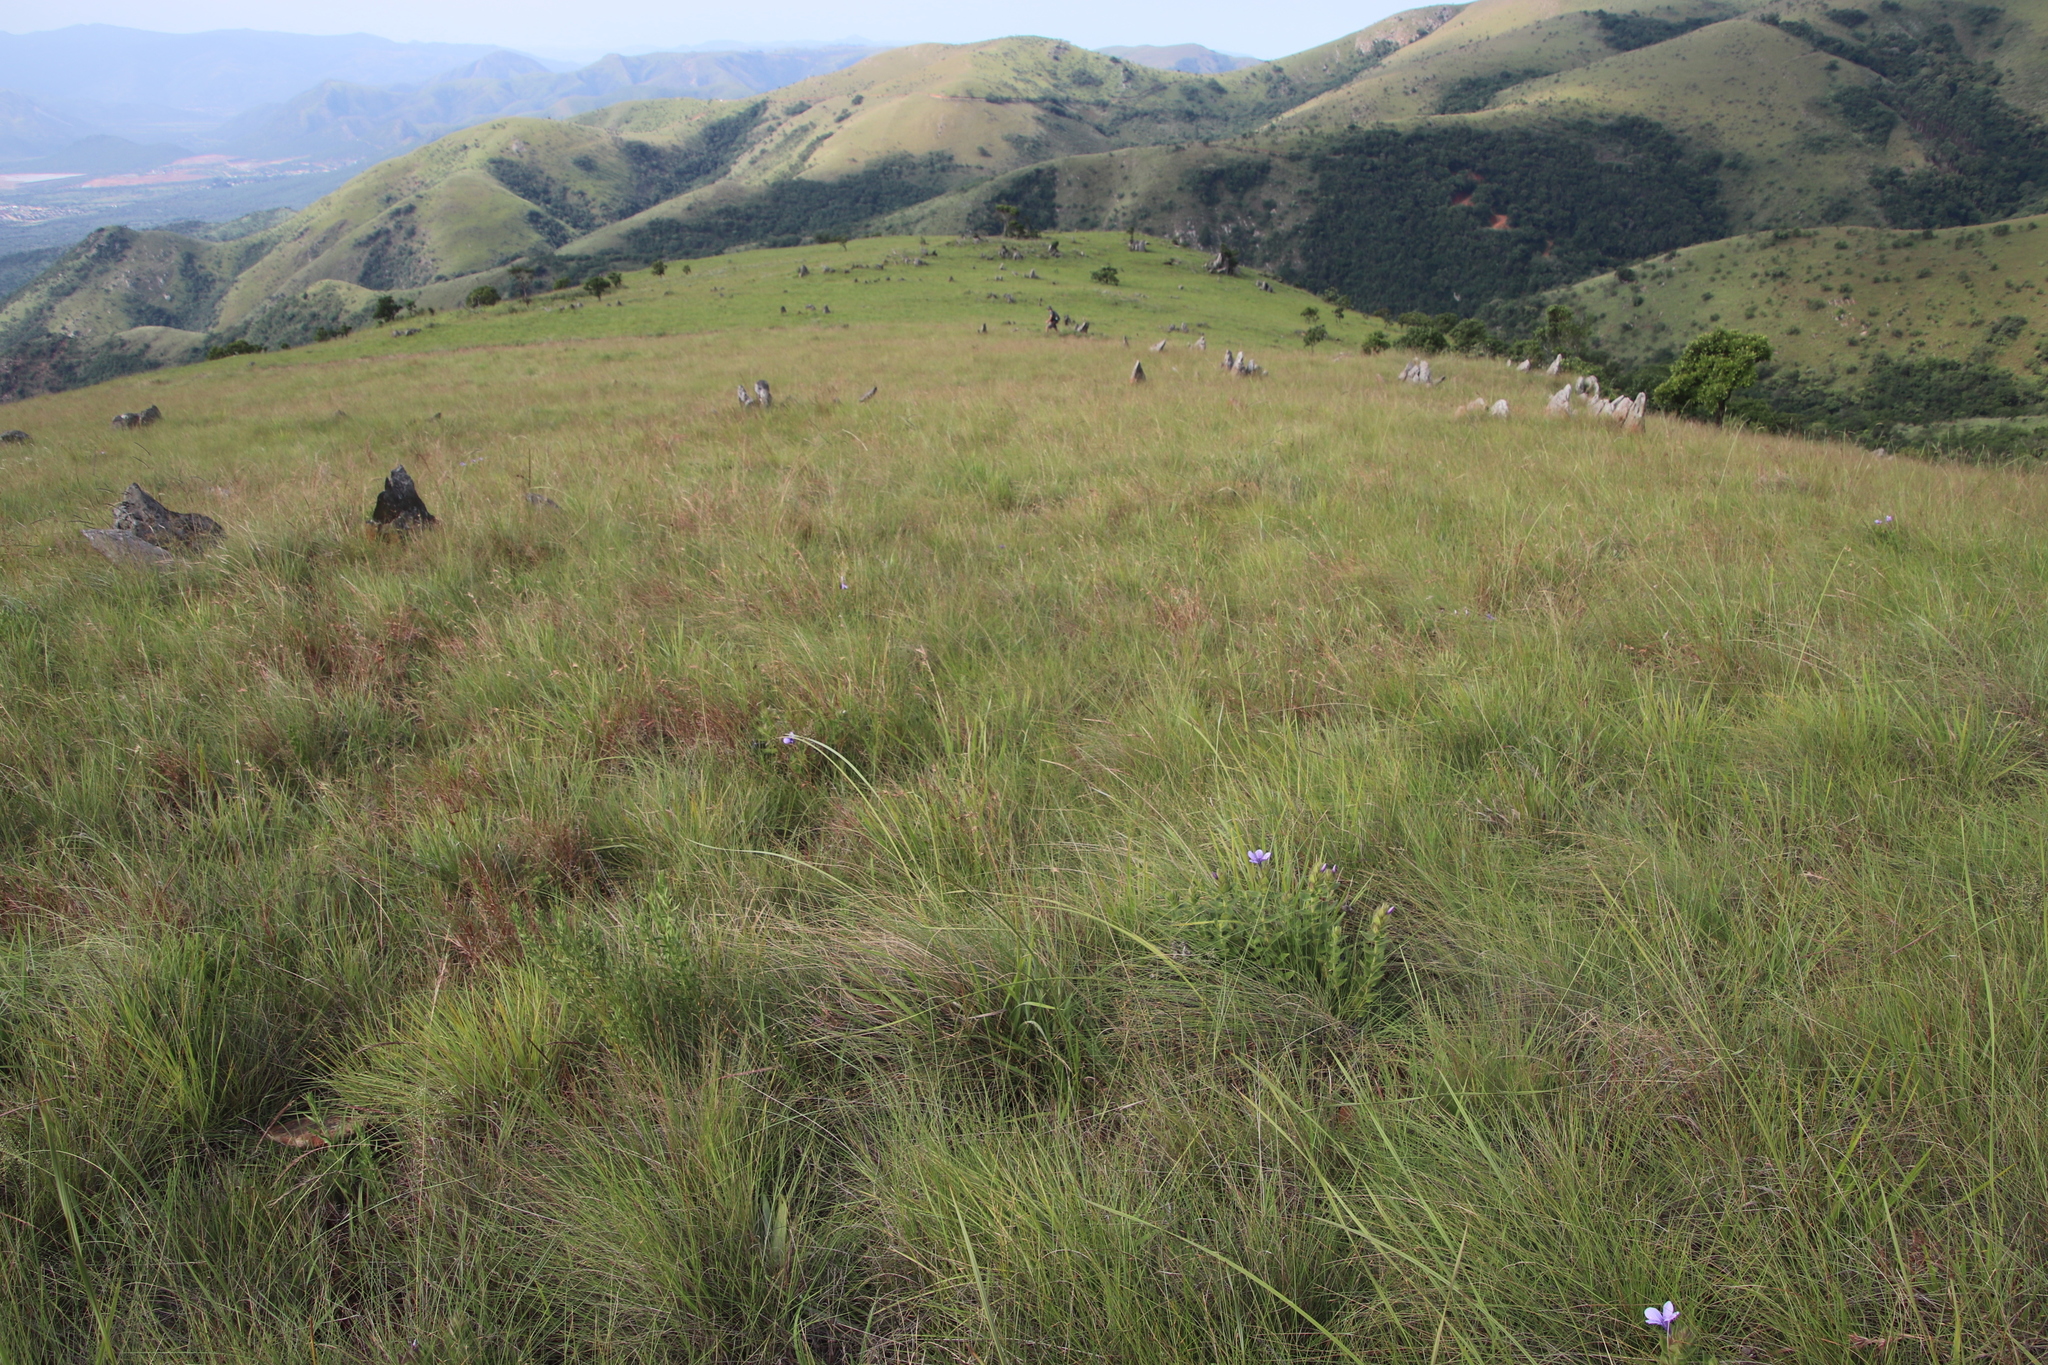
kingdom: Plantae
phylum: Tracheophyta
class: Magnoliopsida
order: Lamiales
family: Acanthaceae
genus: Barleria
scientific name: Barleria ovata
